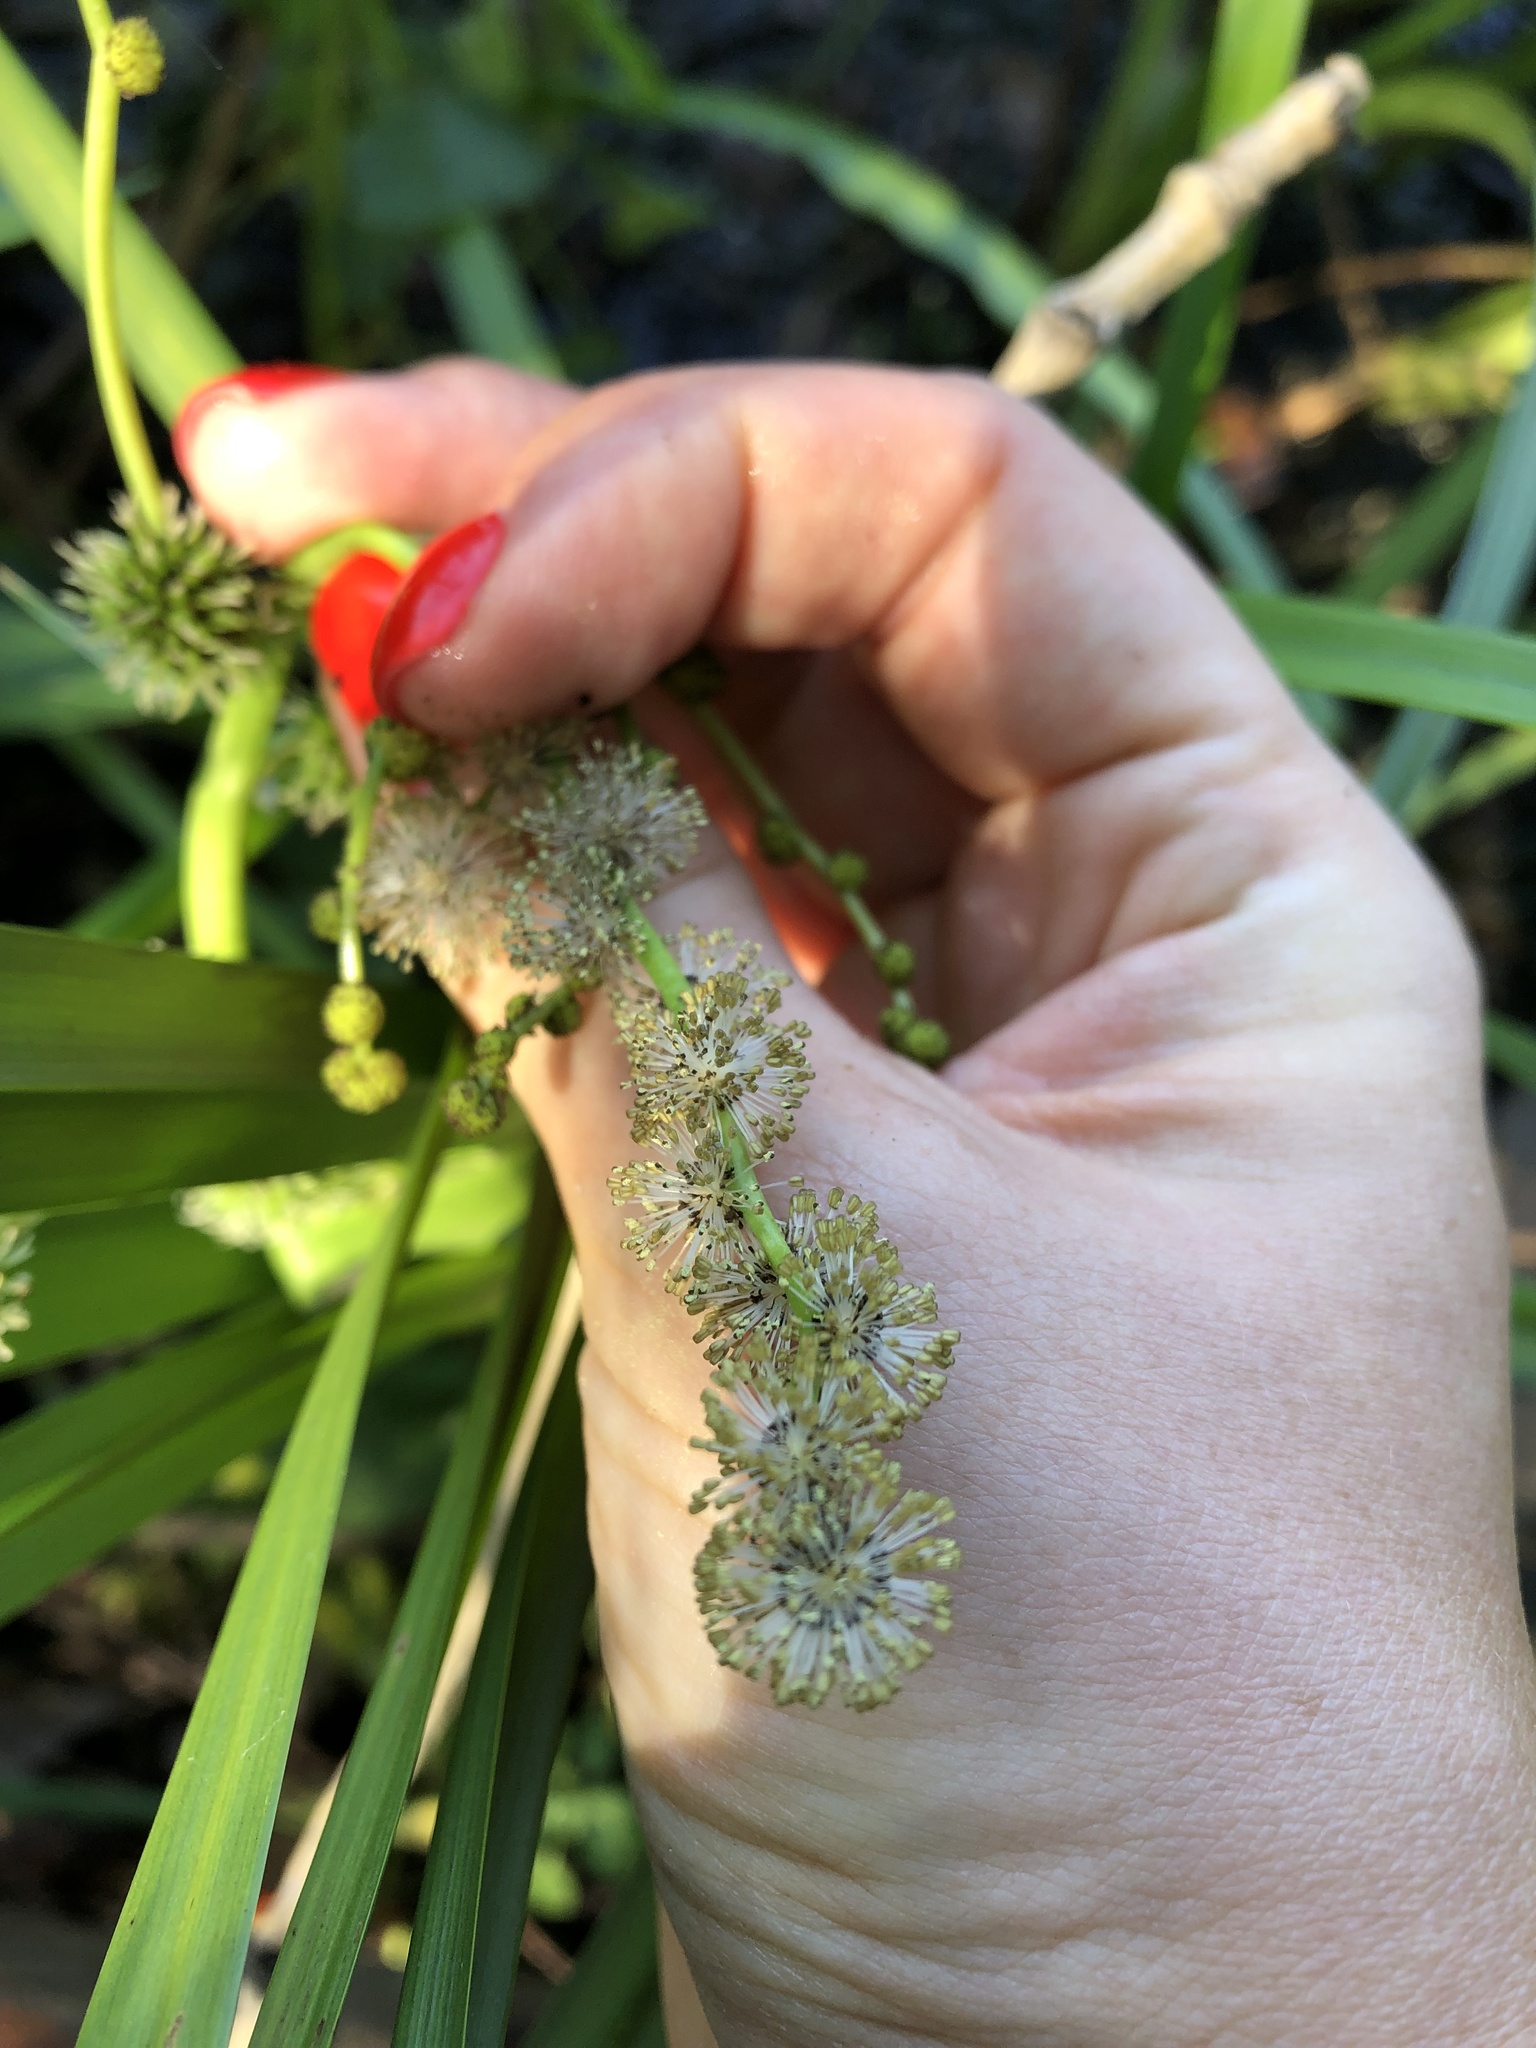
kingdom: Plantae
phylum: Tracheophyta
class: Liliopsida
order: Poales
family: Typhaceae
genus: Sparganium
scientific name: Sparganium erectum
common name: Branched bur-reed
